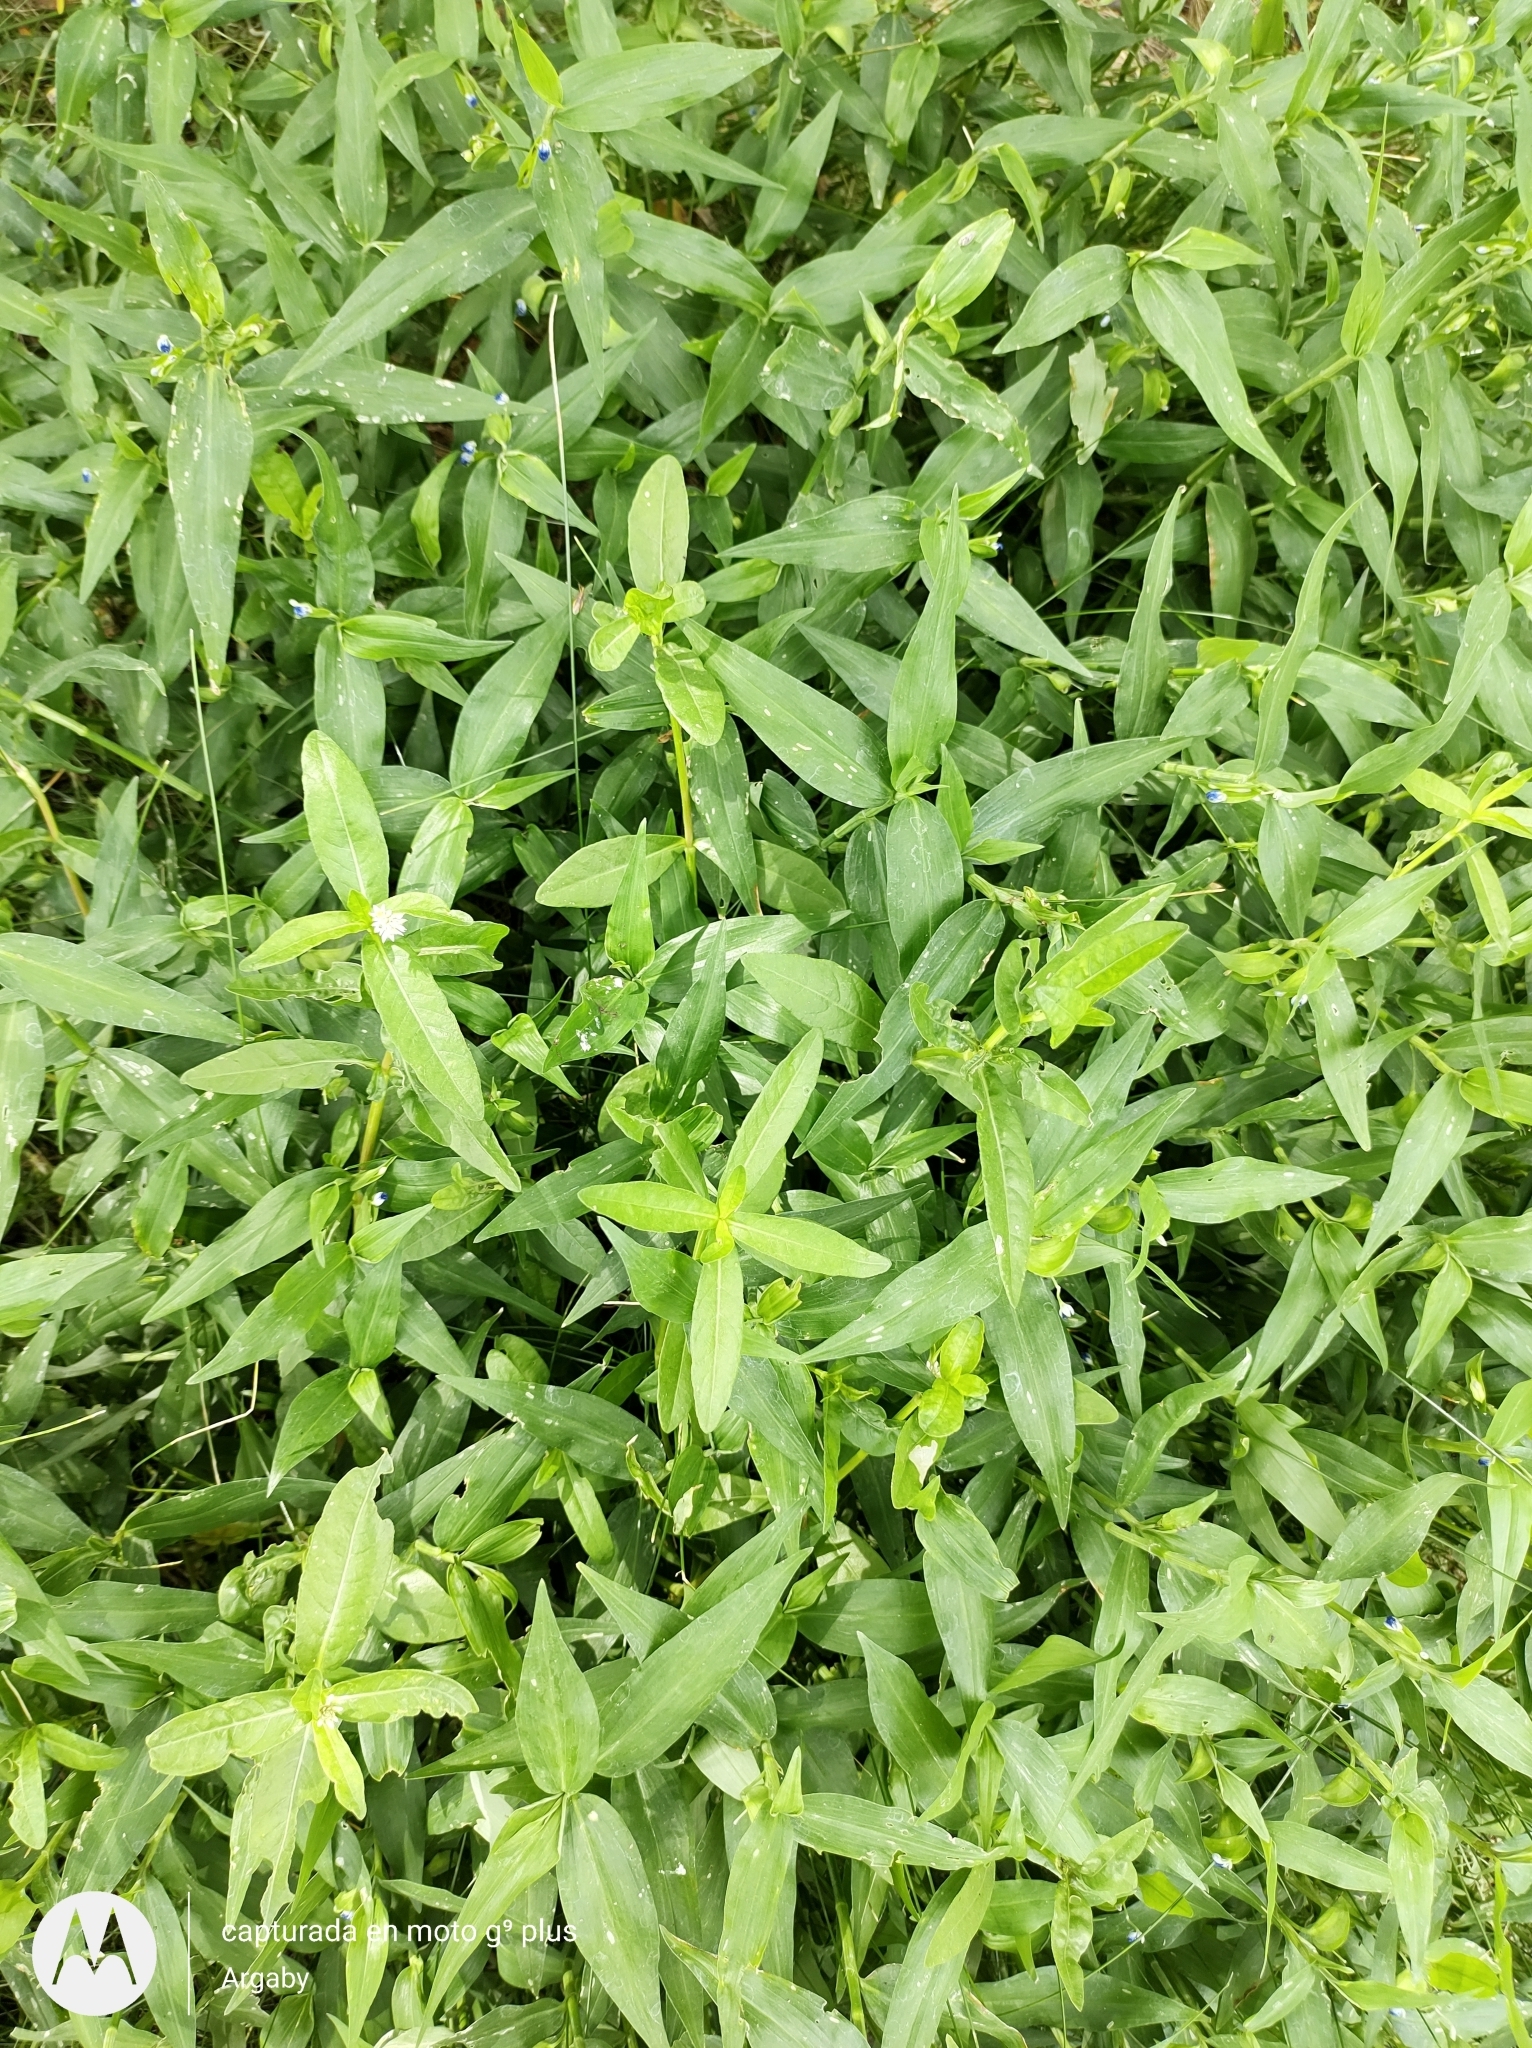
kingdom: Plantae
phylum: Tracheophyta
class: Magnoliopsida
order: Caryophyllales
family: Amaranthaceae
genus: Alternanthera
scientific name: Alternanthera philoxeroides
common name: Alligatorweed
